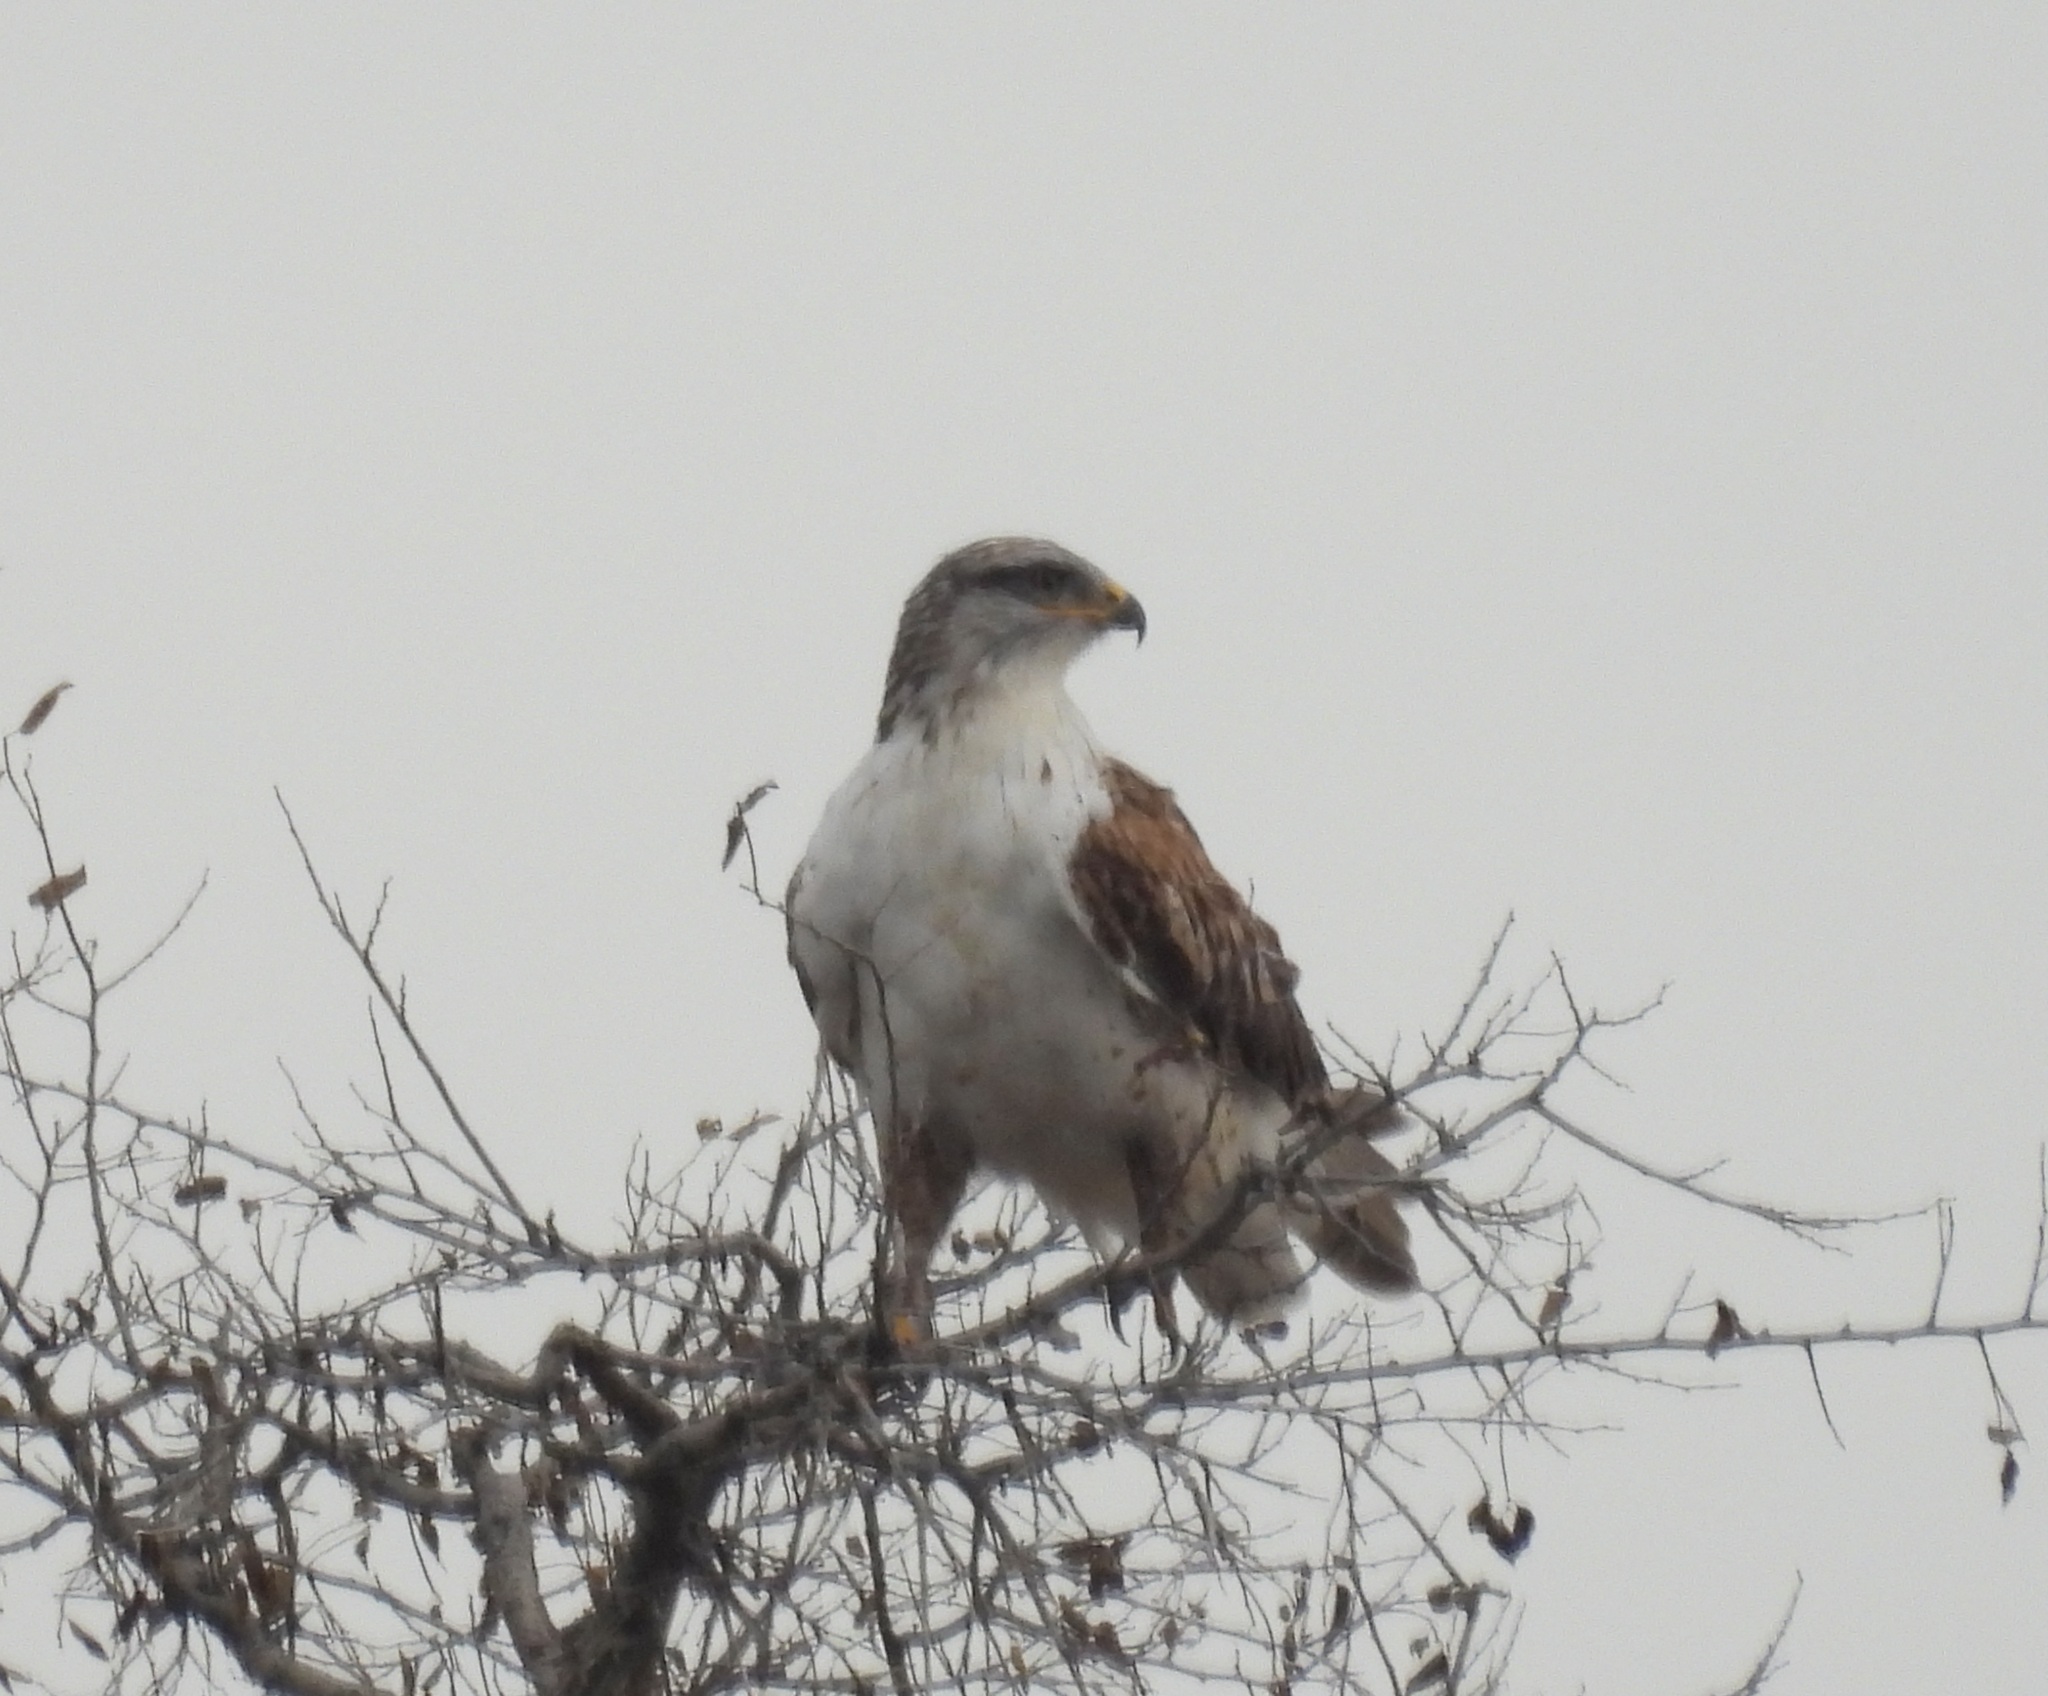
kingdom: Animalia
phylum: Chordata
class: Aves
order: Accipitriformes
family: Accipitridae
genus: Buteo
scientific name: Buteo regalis
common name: Ferruginous hawk
